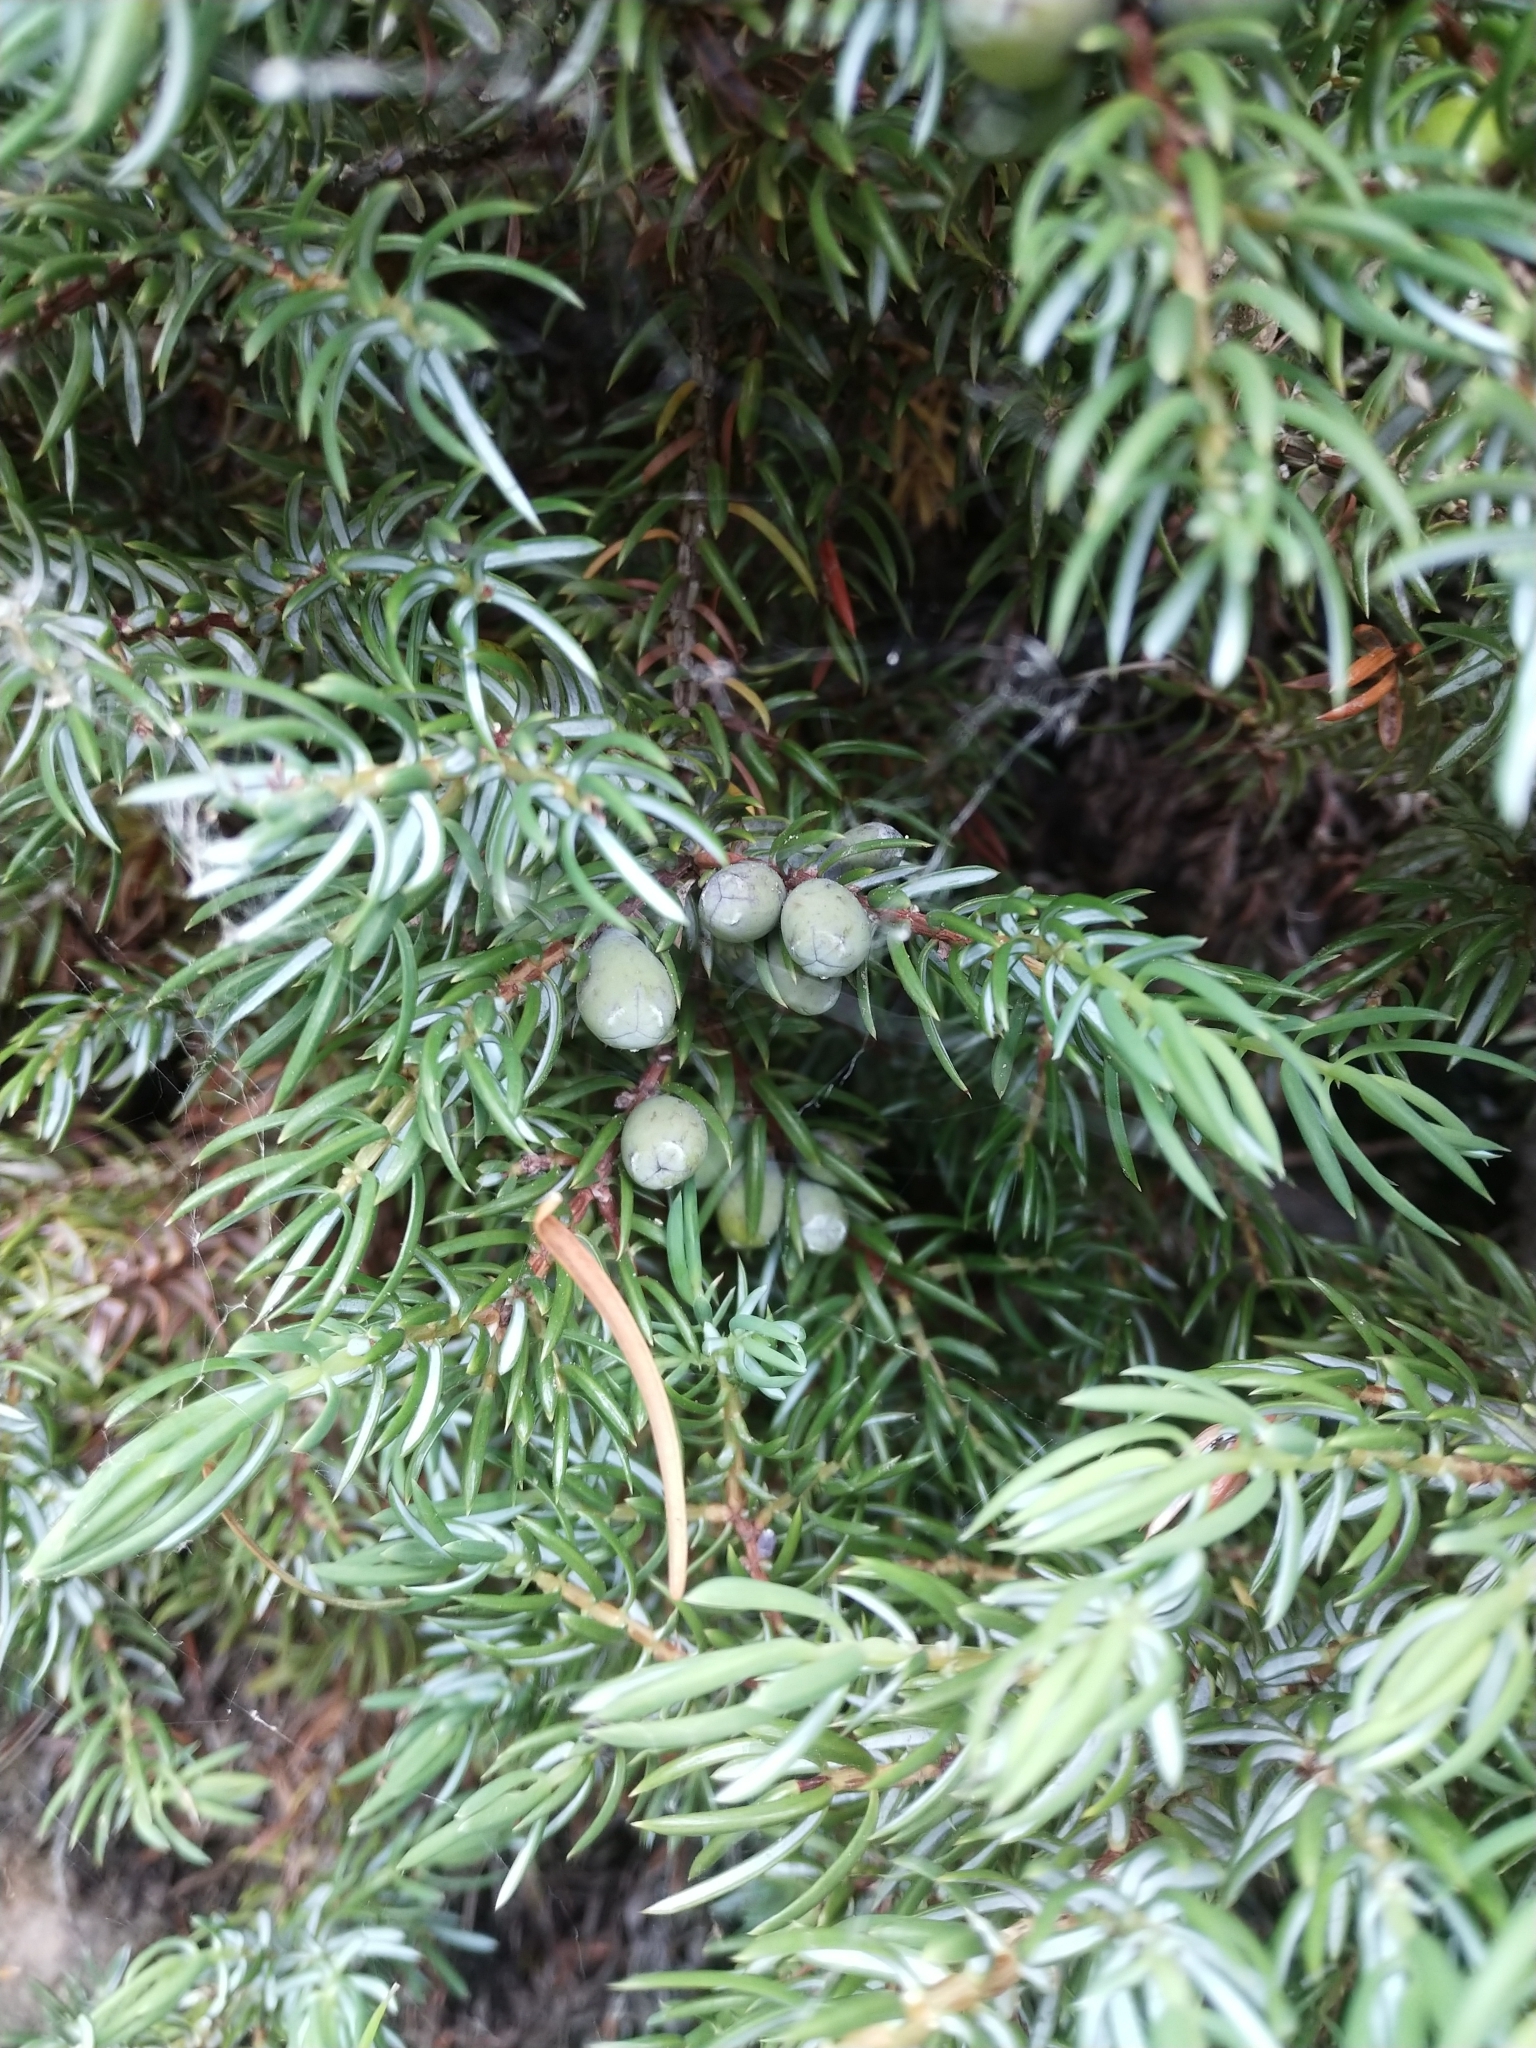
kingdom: Plantae
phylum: Tracheophyta
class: Pinopsida
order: Pinales
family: Cupressaceae
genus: Juniperus
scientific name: Juniperus communis
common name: Common juniper
